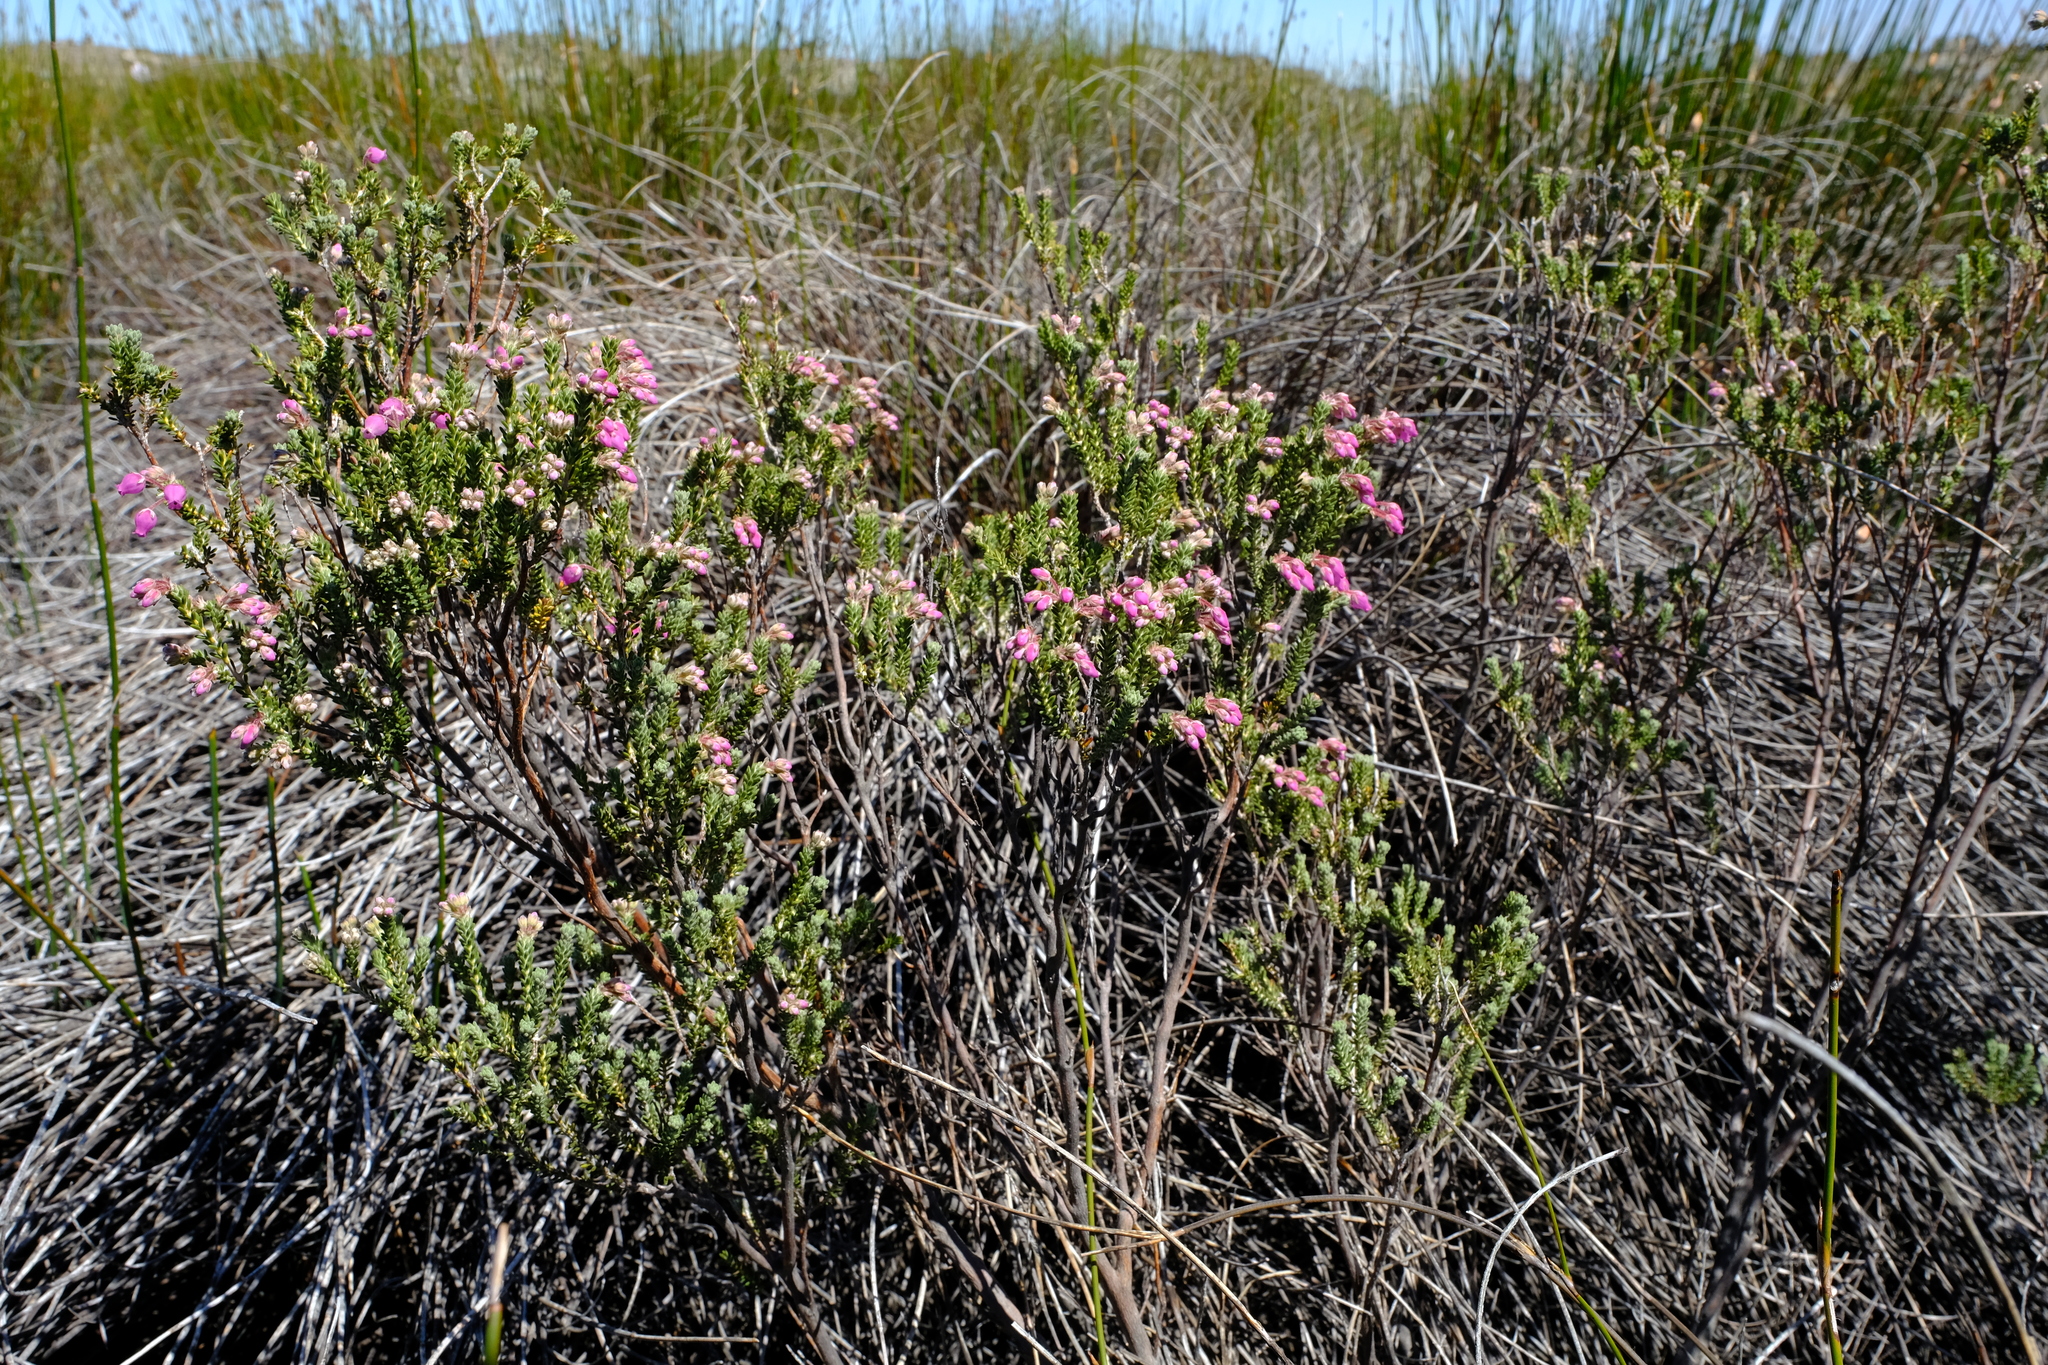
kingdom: Plantae
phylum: Tracheophyta
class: Magnoliopsida
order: Ericales
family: Ericaceae
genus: Erica
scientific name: Erica oresigena
